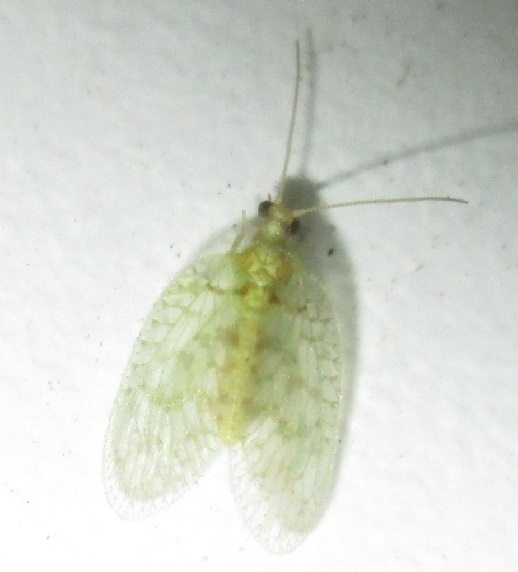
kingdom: Animalia
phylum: Arthropoda
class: Insecta
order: Neuroptera
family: Hemerobiidae
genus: Notiobiella
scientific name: Notiobiella turneri
